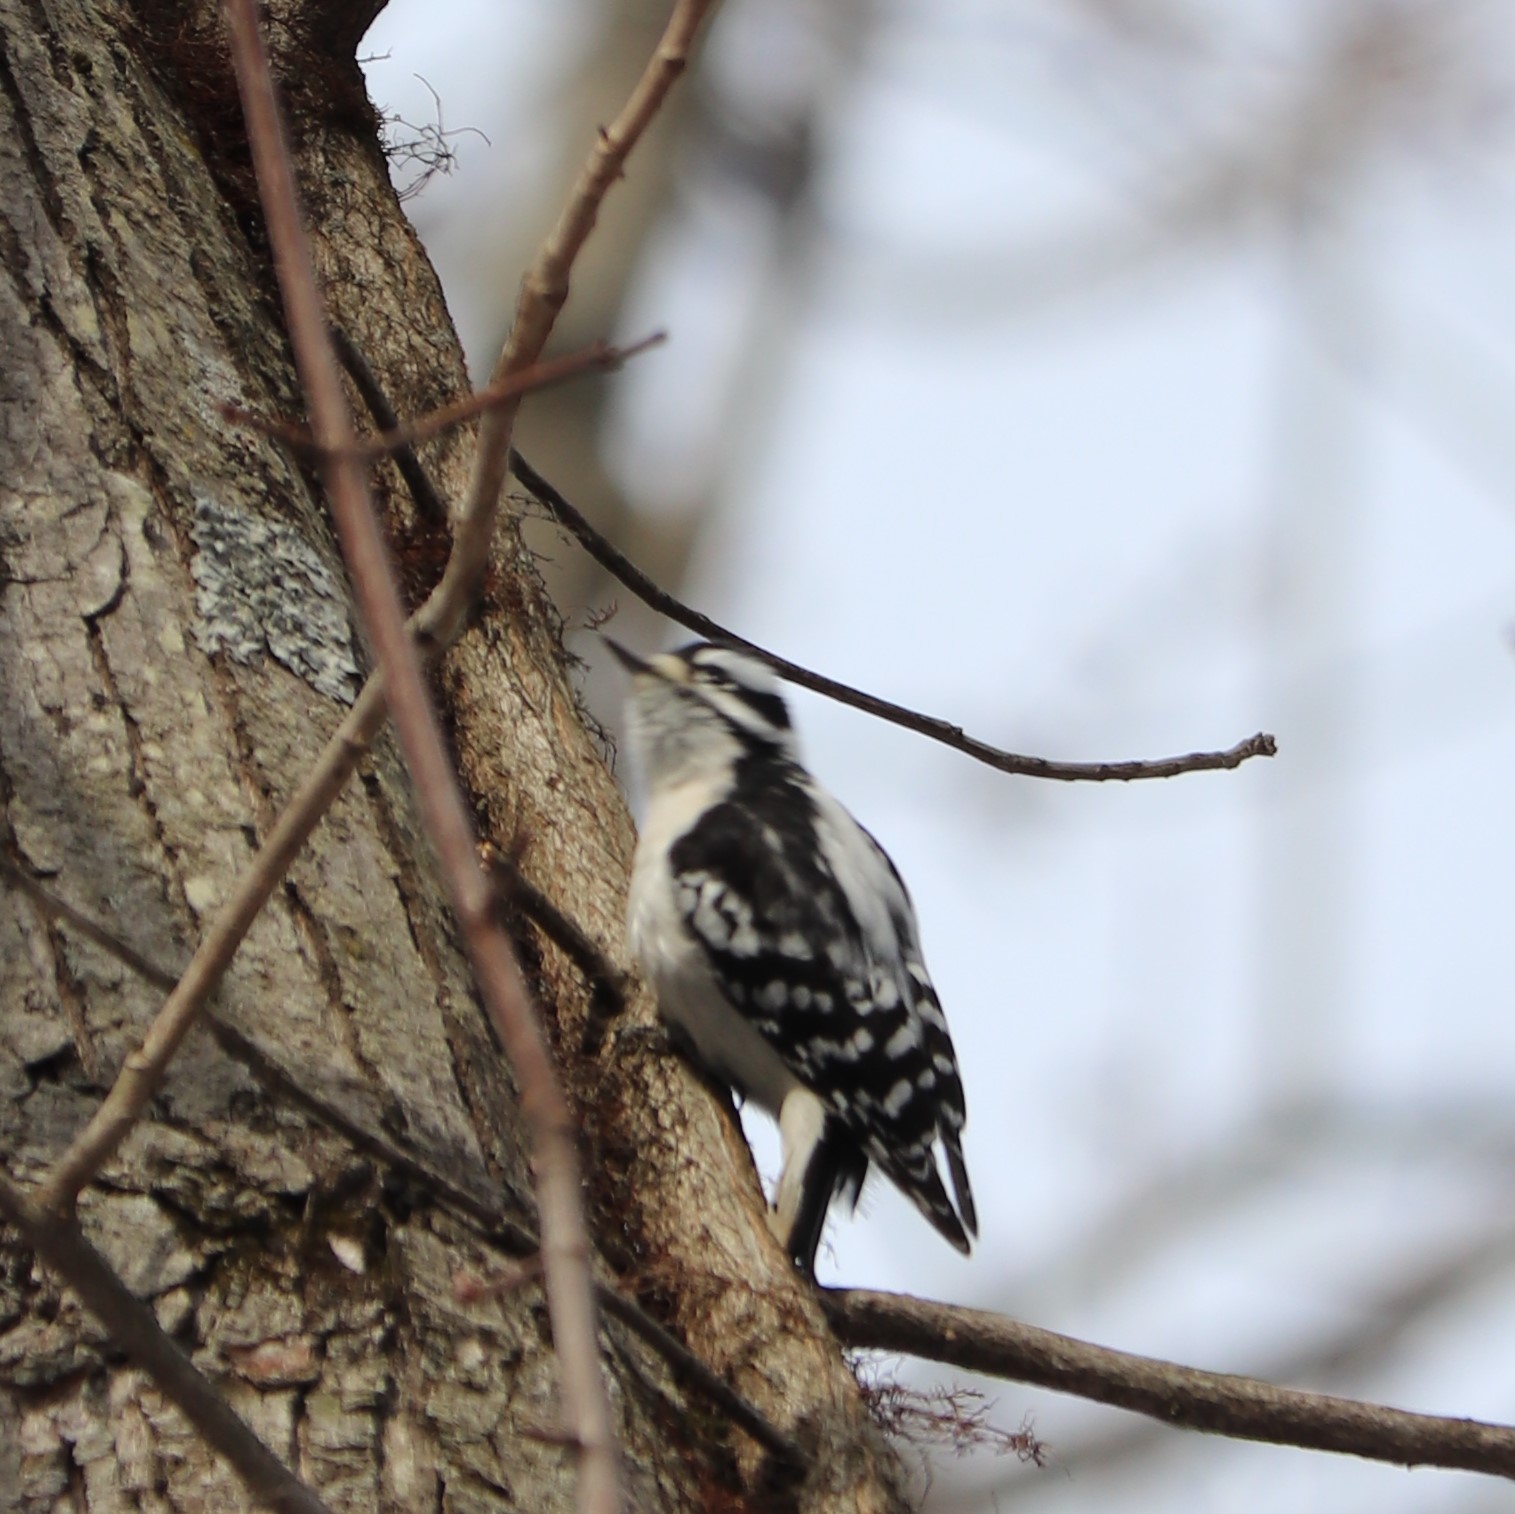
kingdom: Animalia
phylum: Chordata
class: Aves
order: Piciformes
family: Picidae
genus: Dryobates
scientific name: Dryobates pubescens
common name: Downy woodpecker
